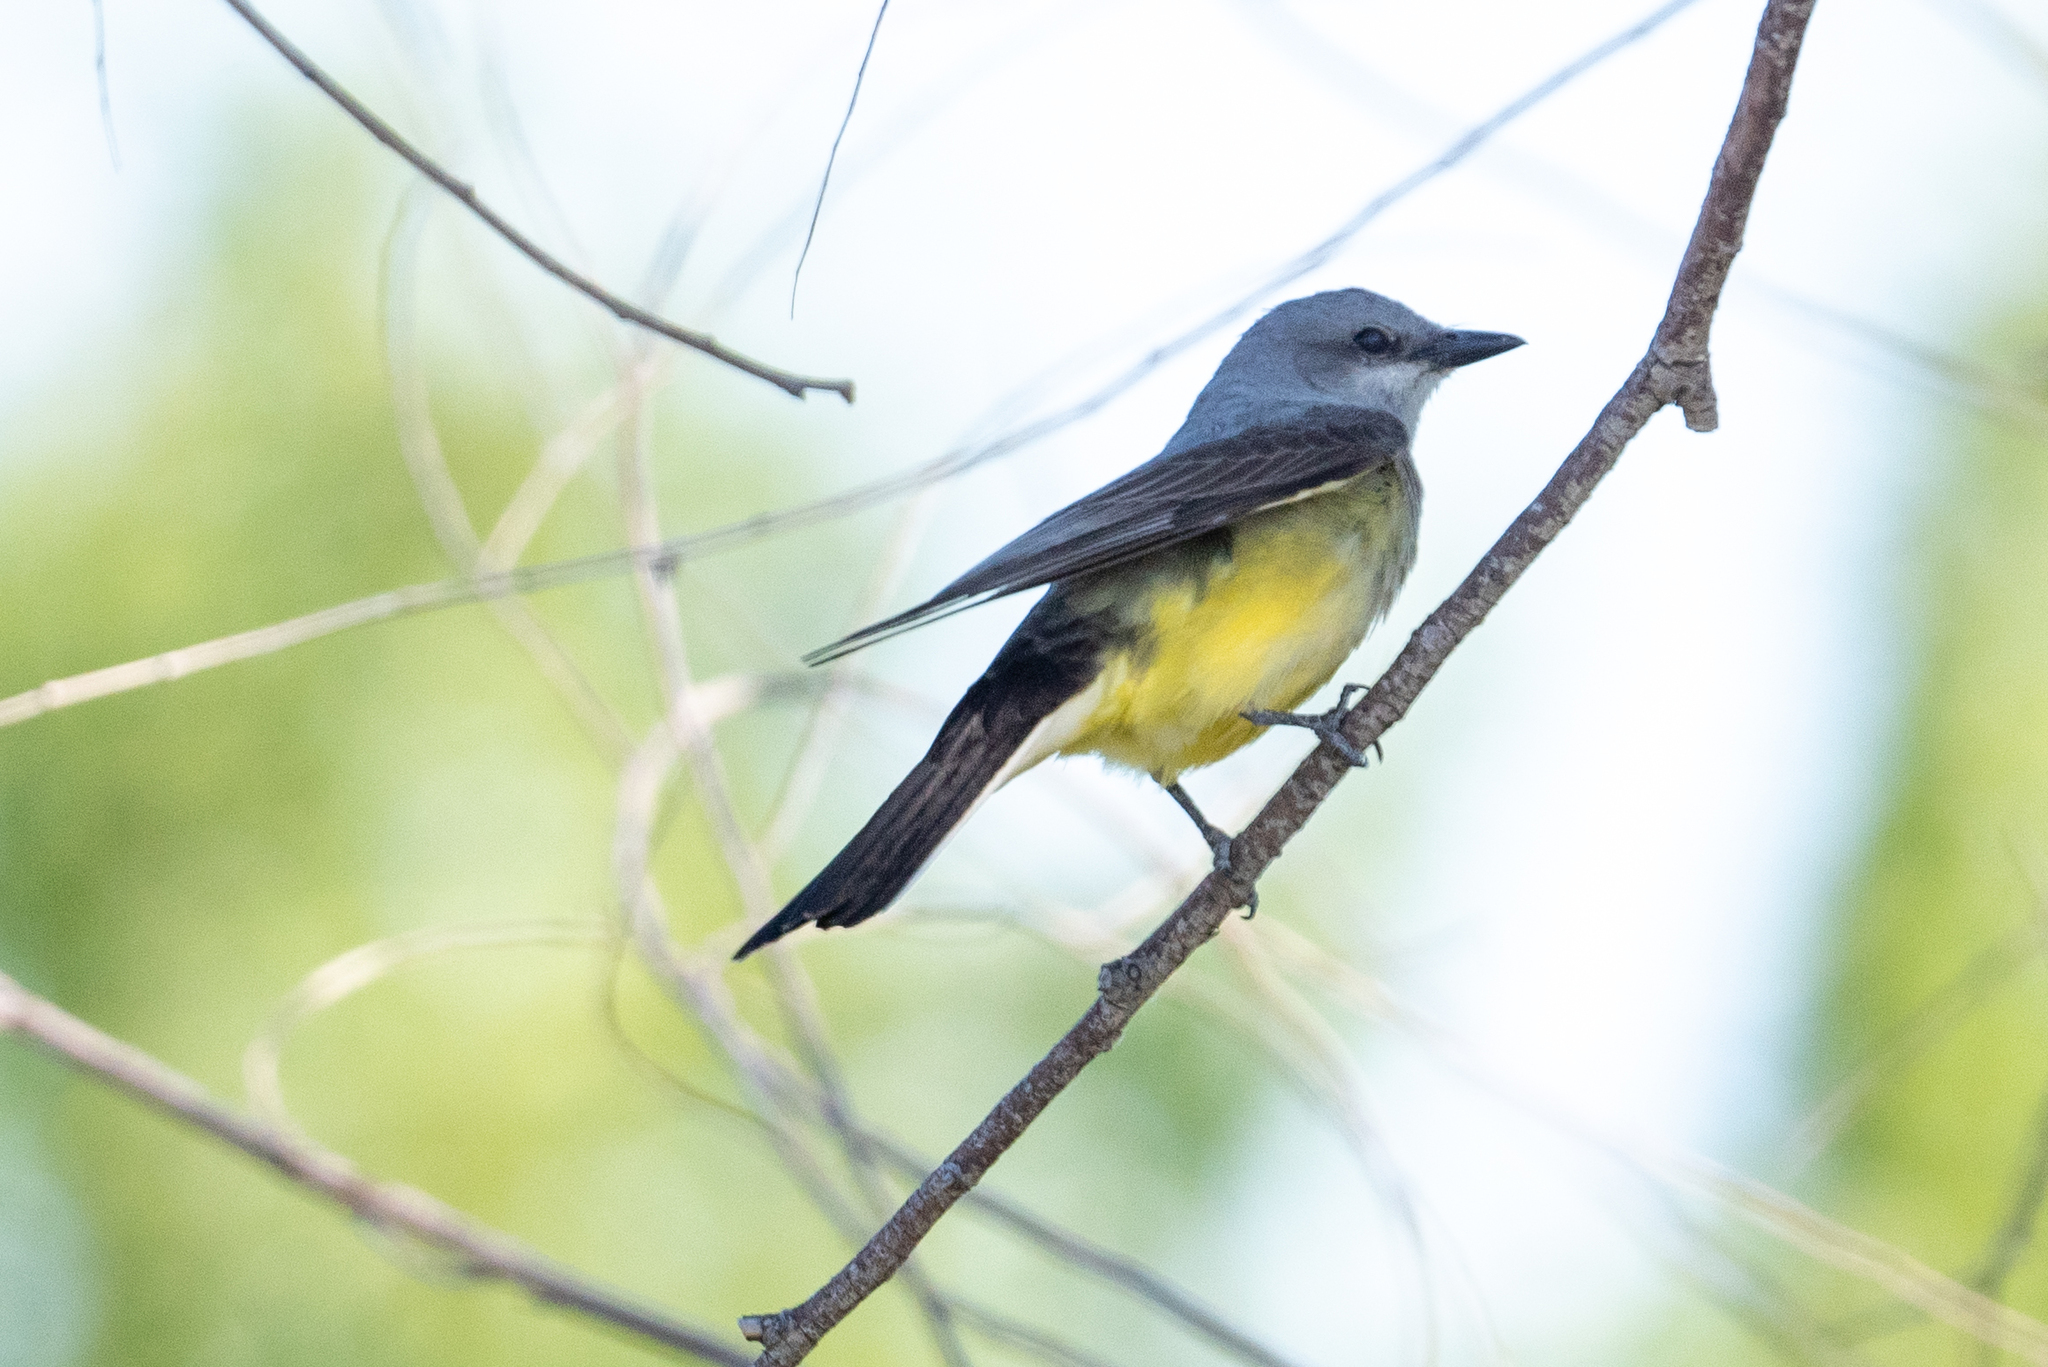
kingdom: Animalia
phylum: Chordata
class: Aves
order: Passeriformes
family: Tyrannidae
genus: Tyrannus
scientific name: Tyrannus verticalis
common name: Western kingbird
